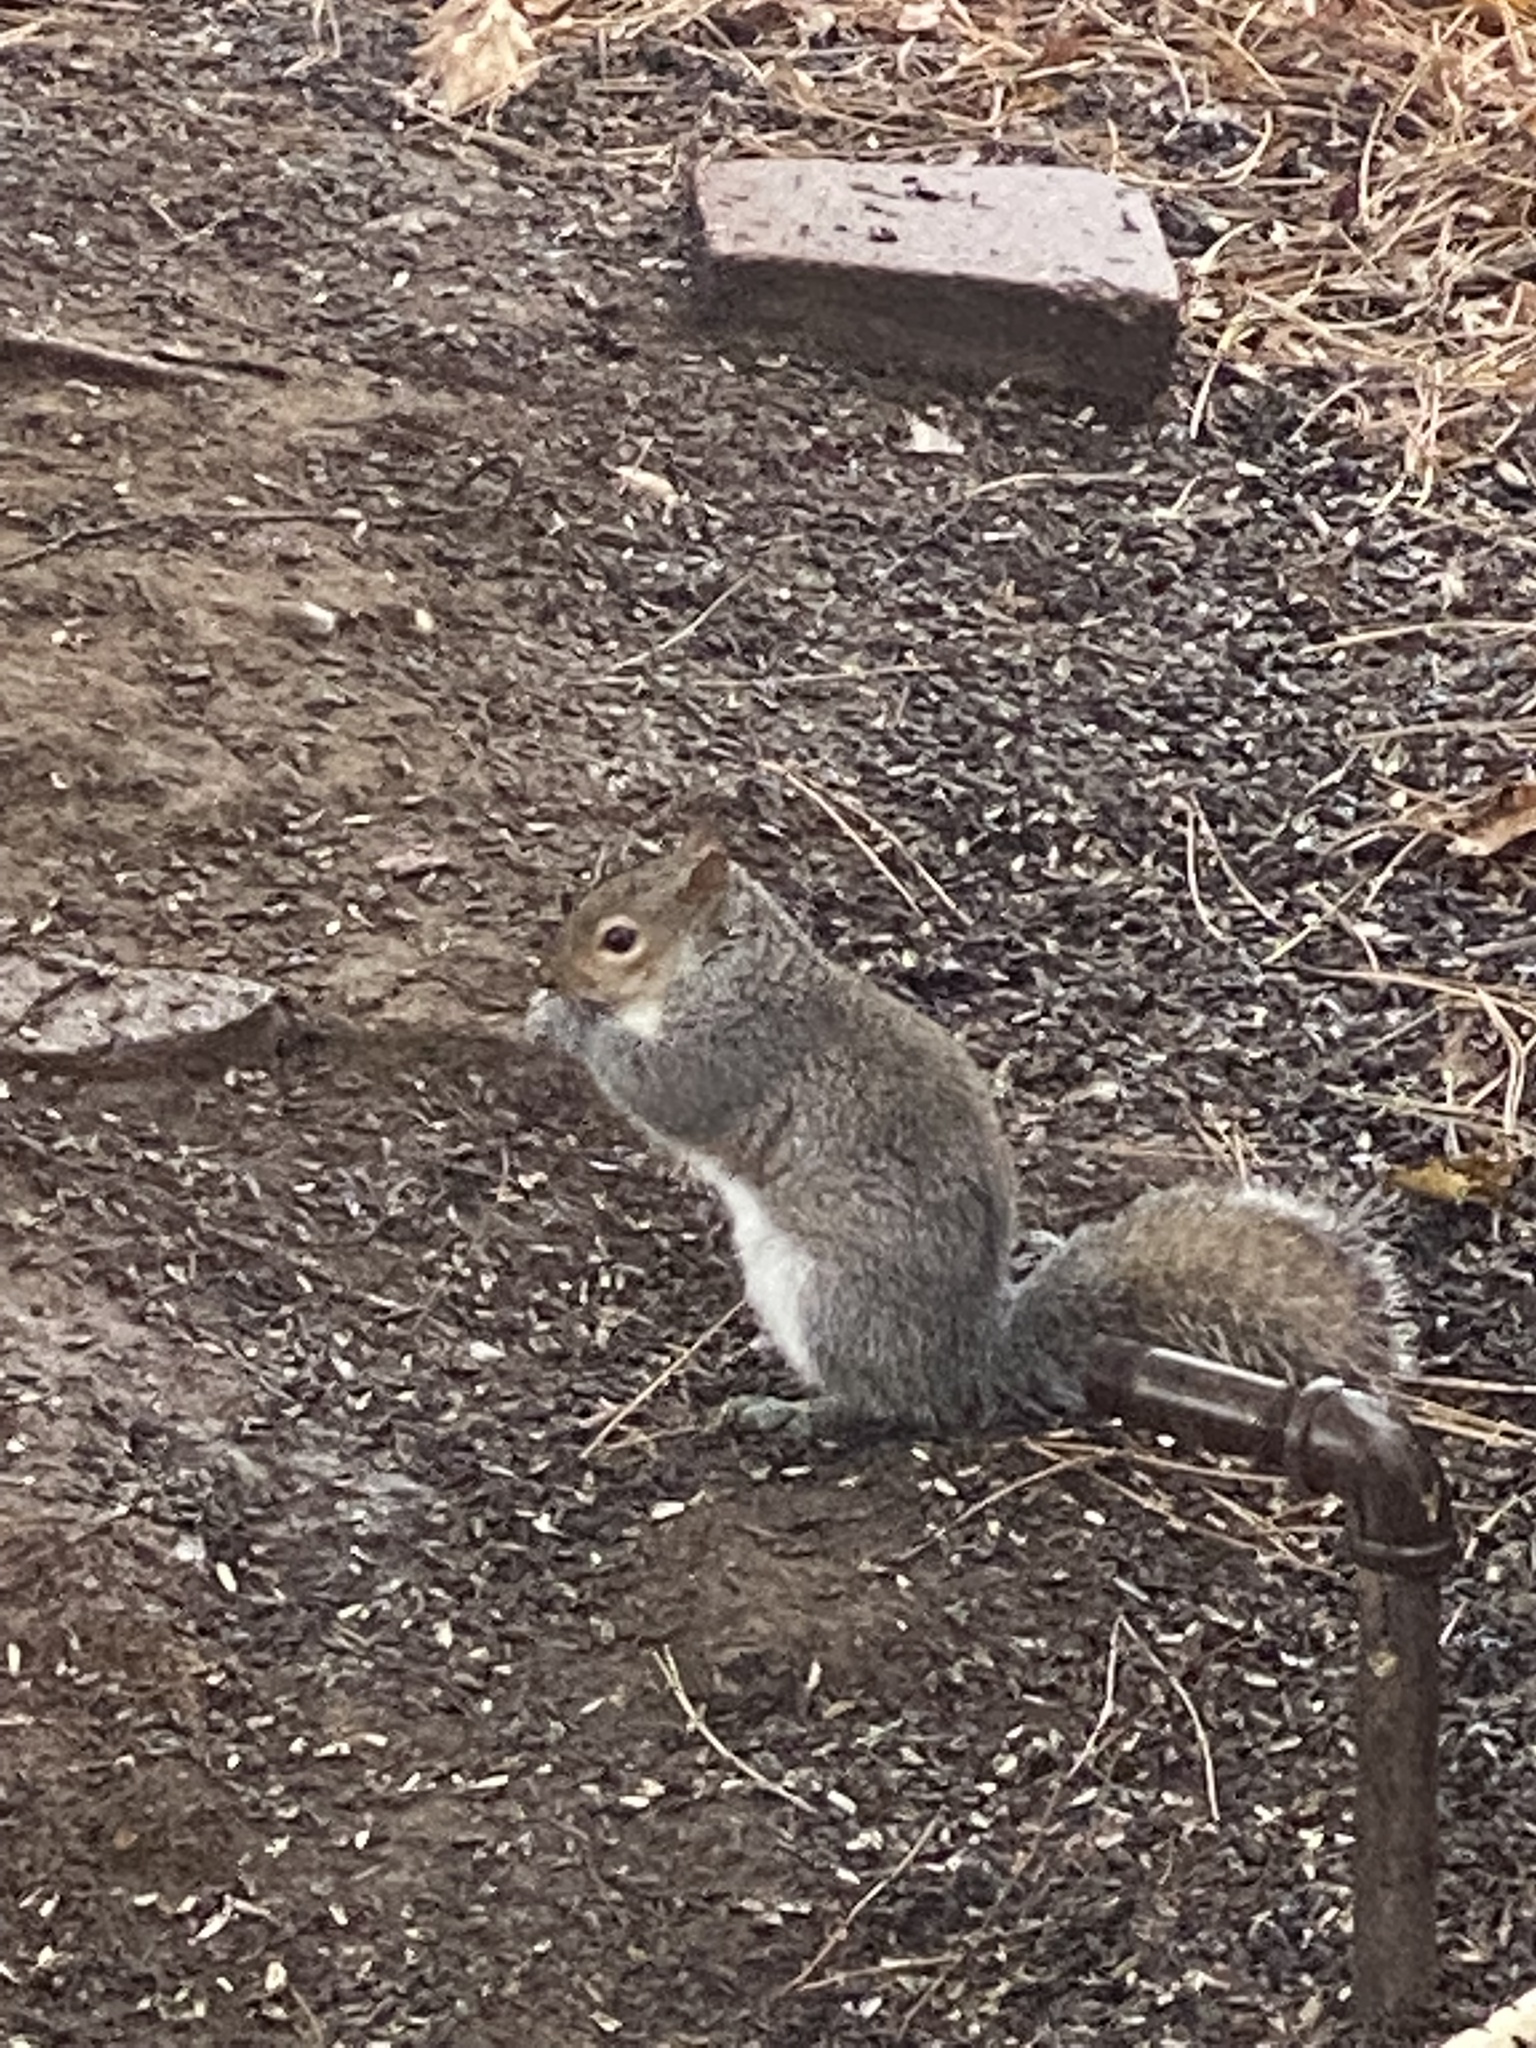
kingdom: Animalia
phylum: Chordata
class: Mammalia
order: Rodentia
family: Sciuridae
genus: Sciurus
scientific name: Sciurus carolinensis
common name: Eastern gray squirrel
